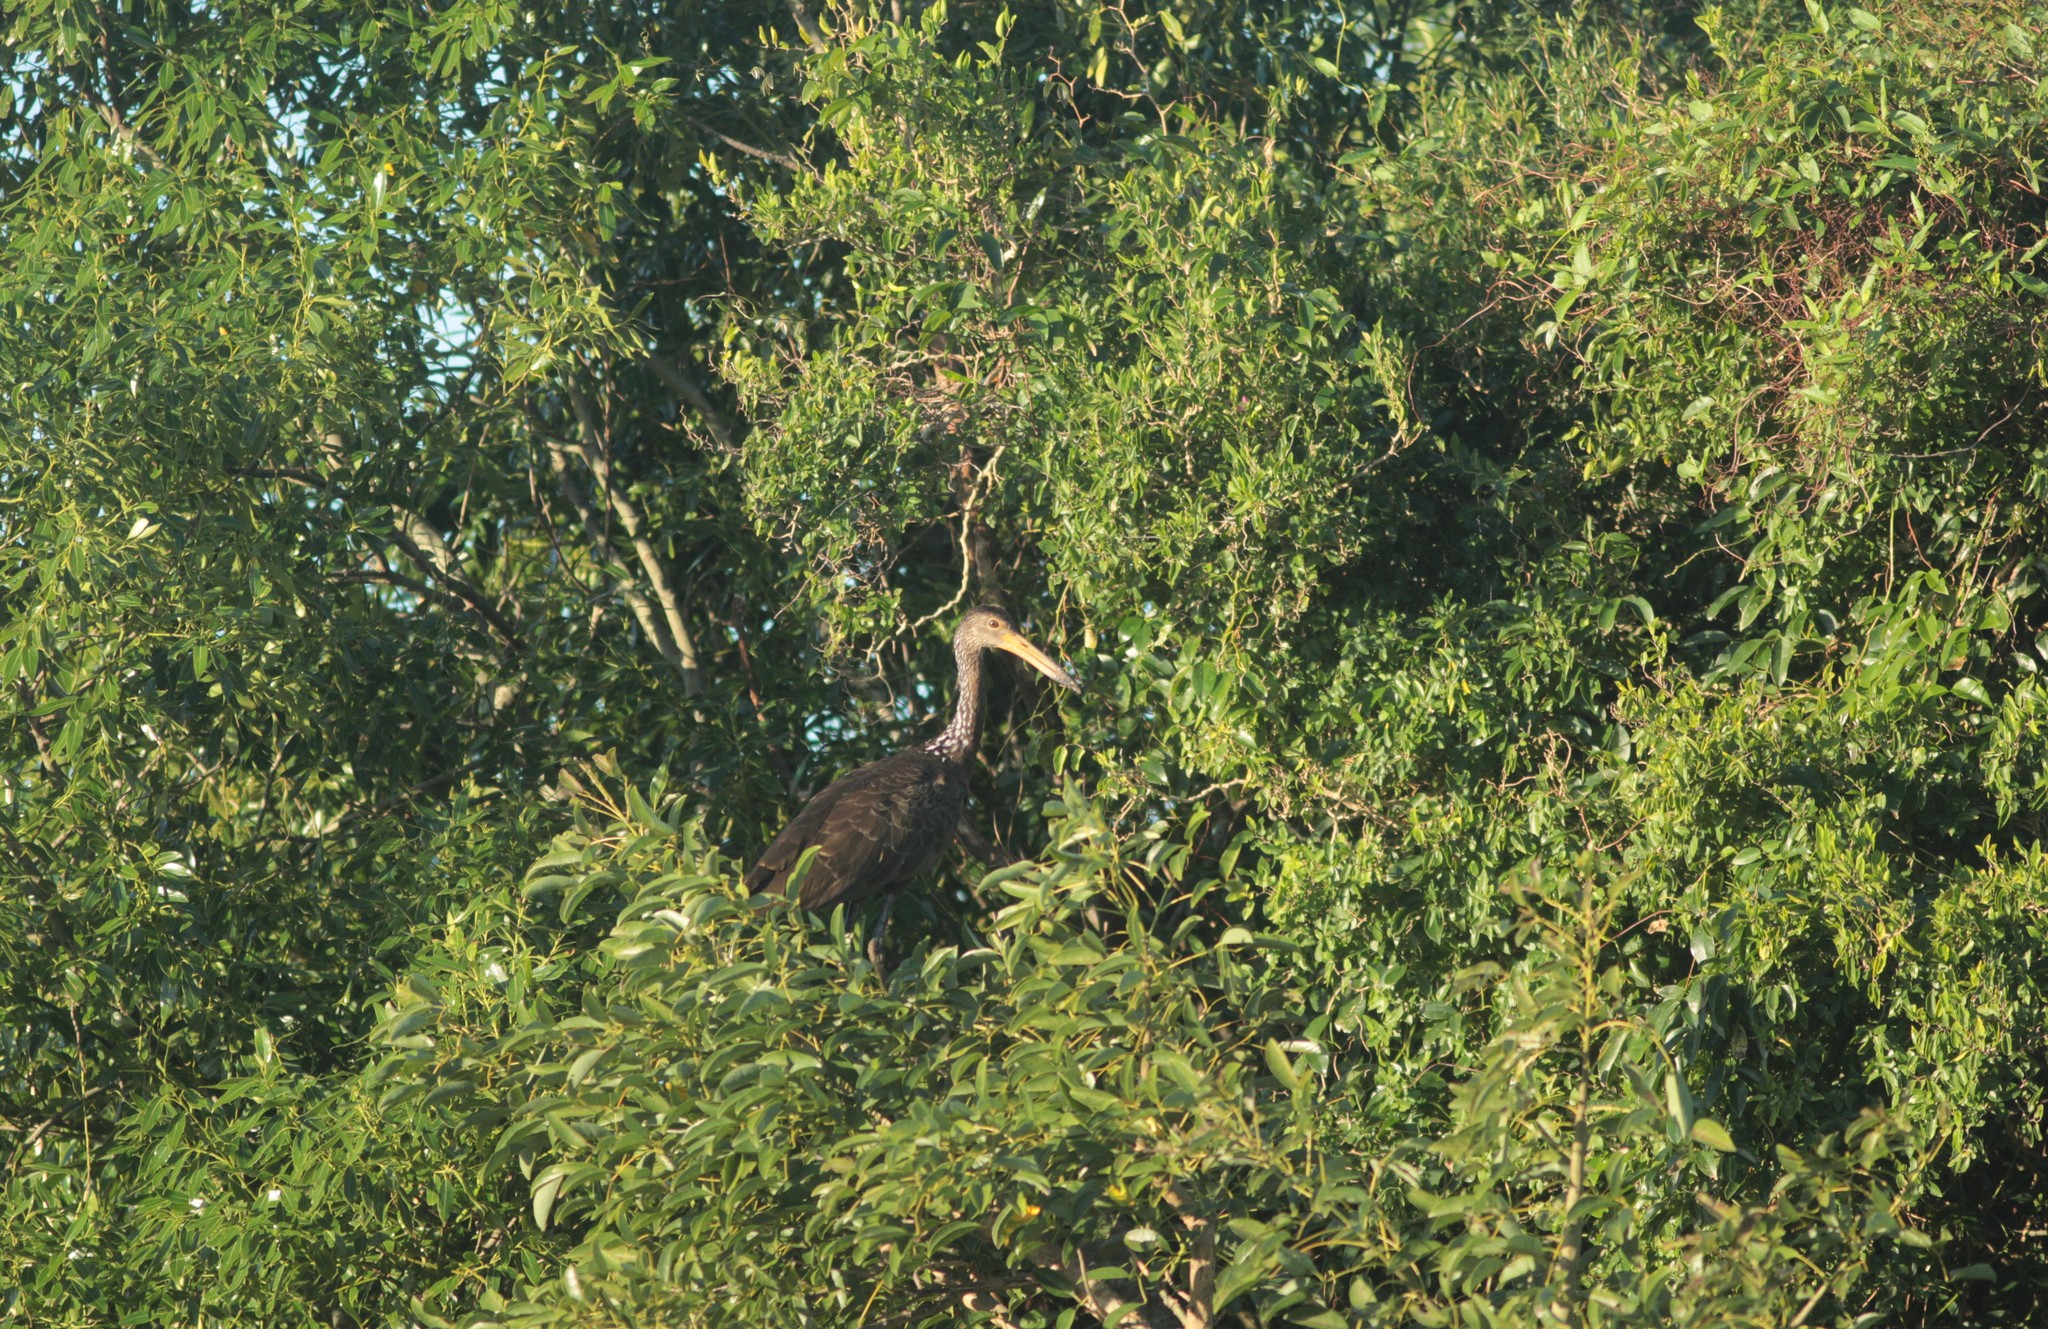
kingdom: Animalia
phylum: Chordata
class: Aves
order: Gruiformes
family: Aramidae
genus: Aramus
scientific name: Aramus guarauna
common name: Limpkin
